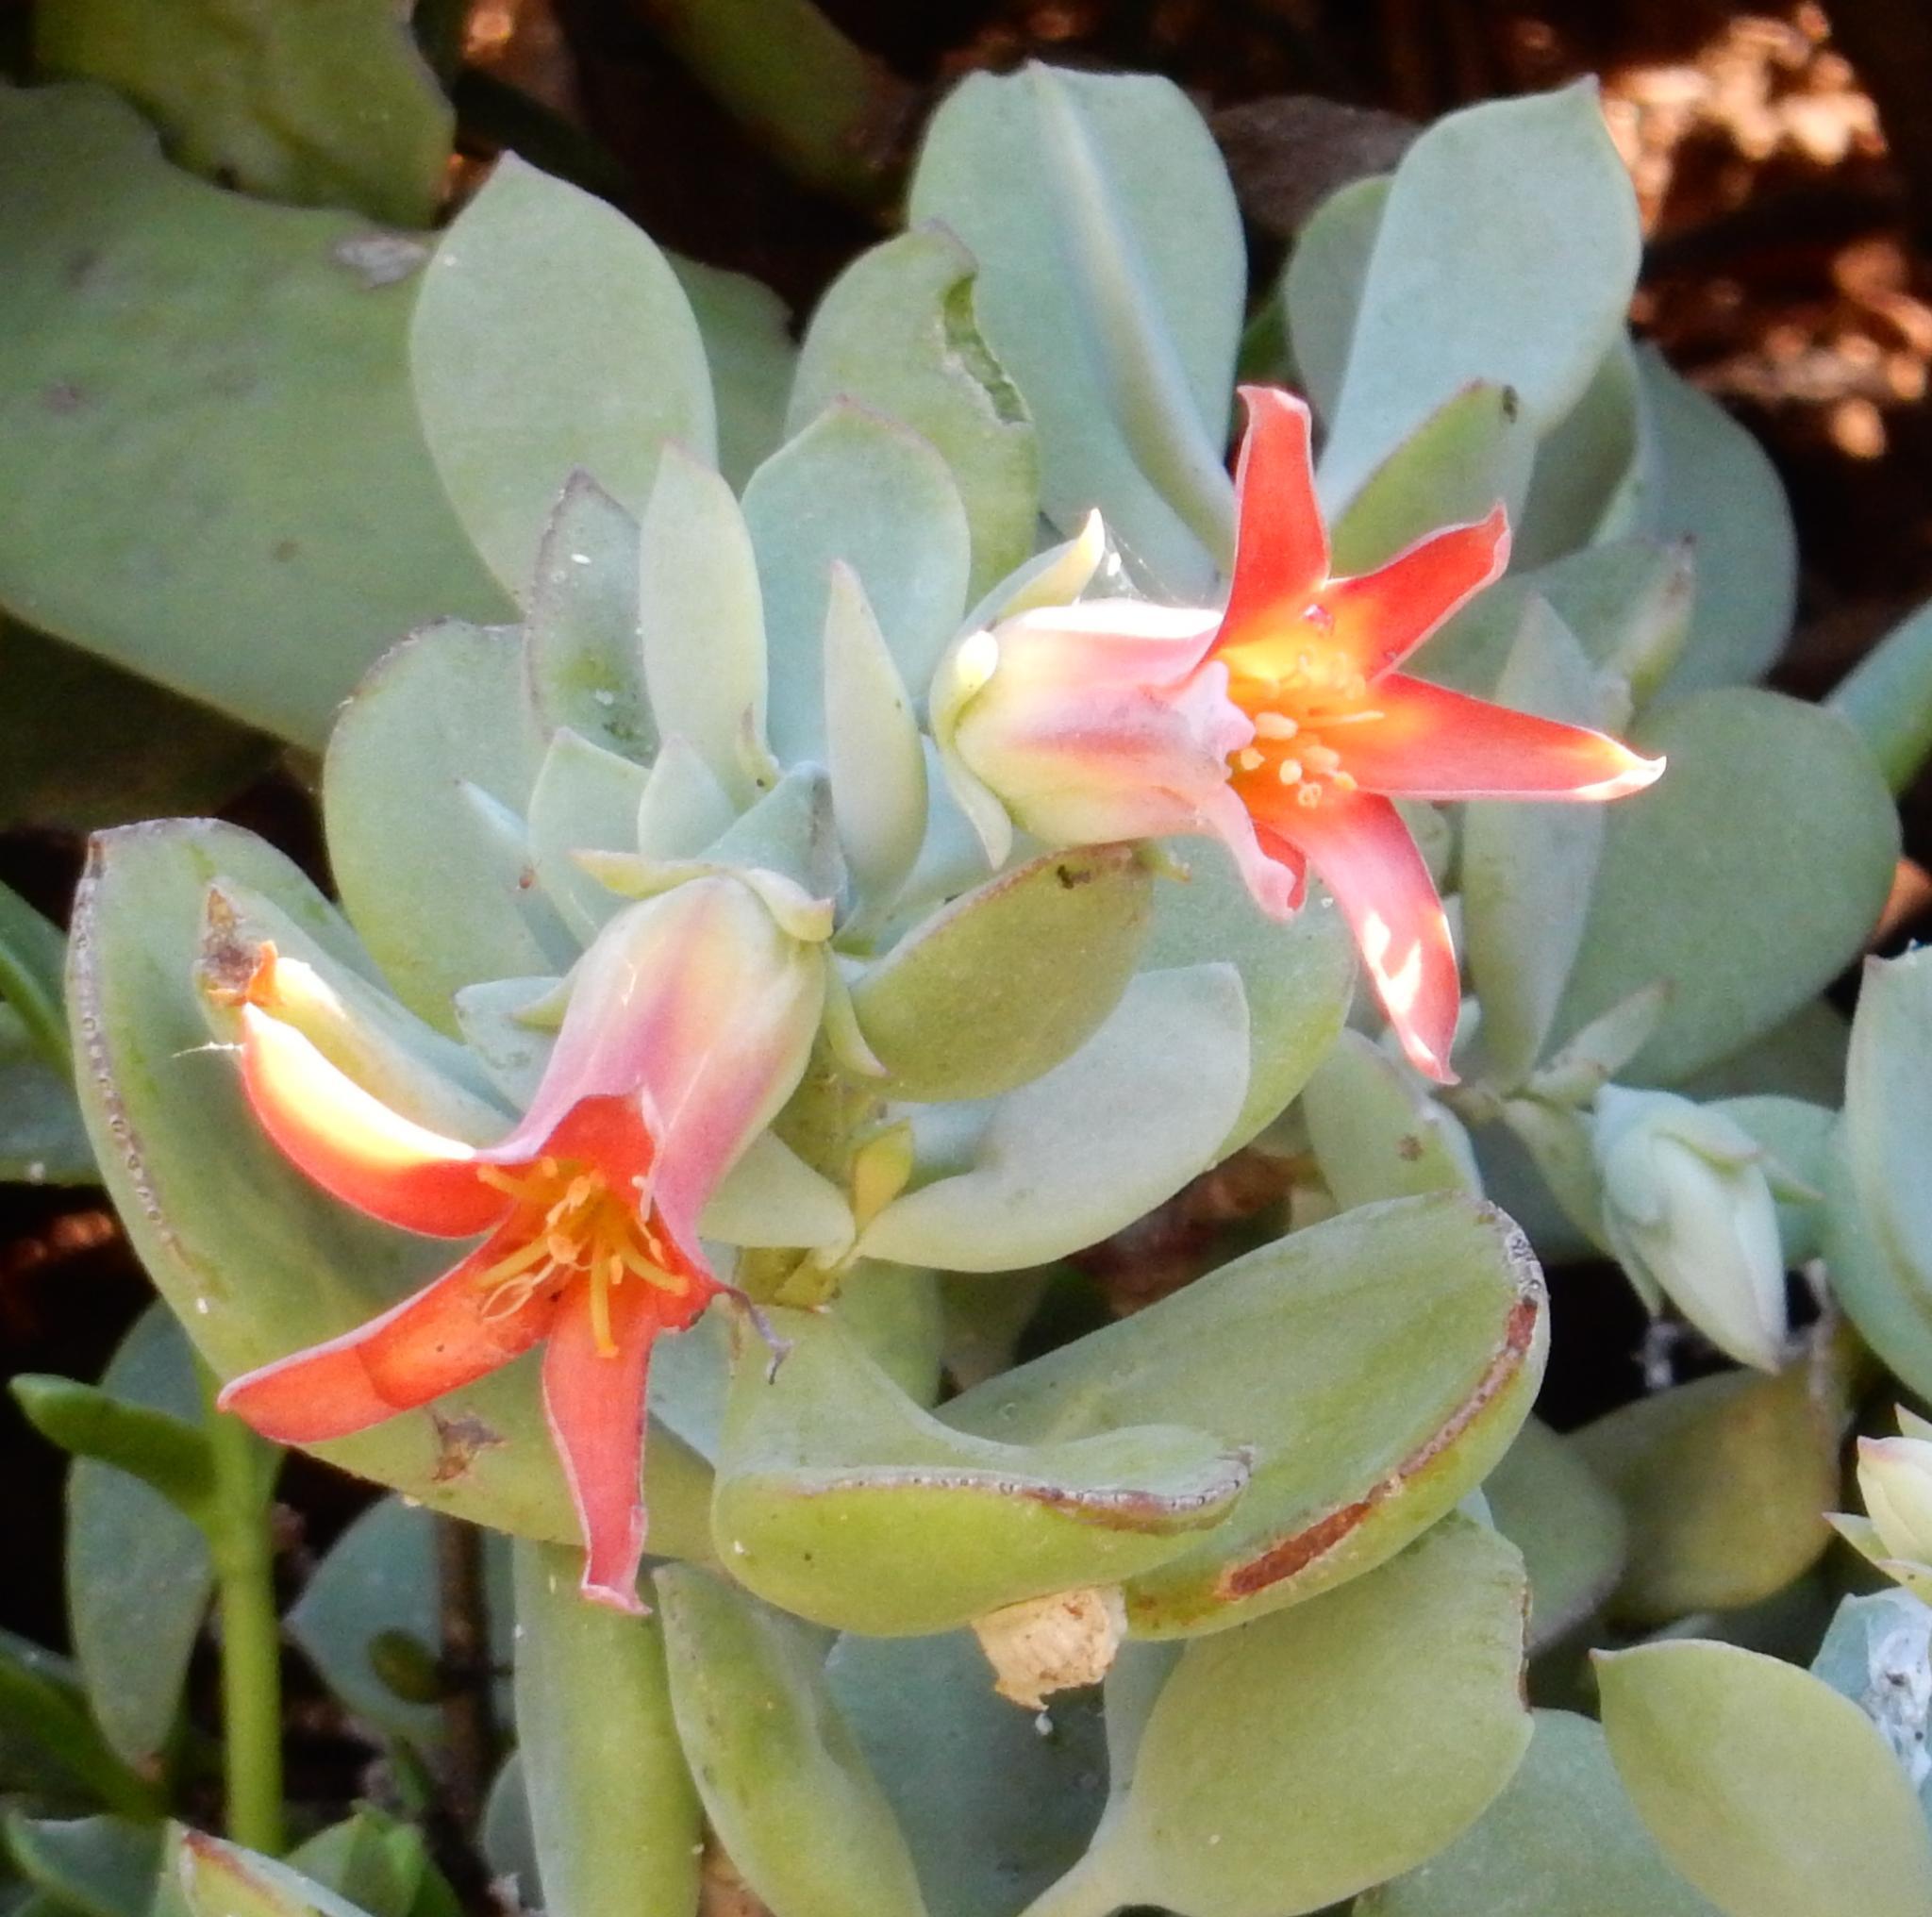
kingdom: Plantae
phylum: Tracheophyta
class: Magnoliopsida
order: Saxifragales
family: Crassulaceae
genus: Cotyledon
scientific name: Cotyledon woodii
